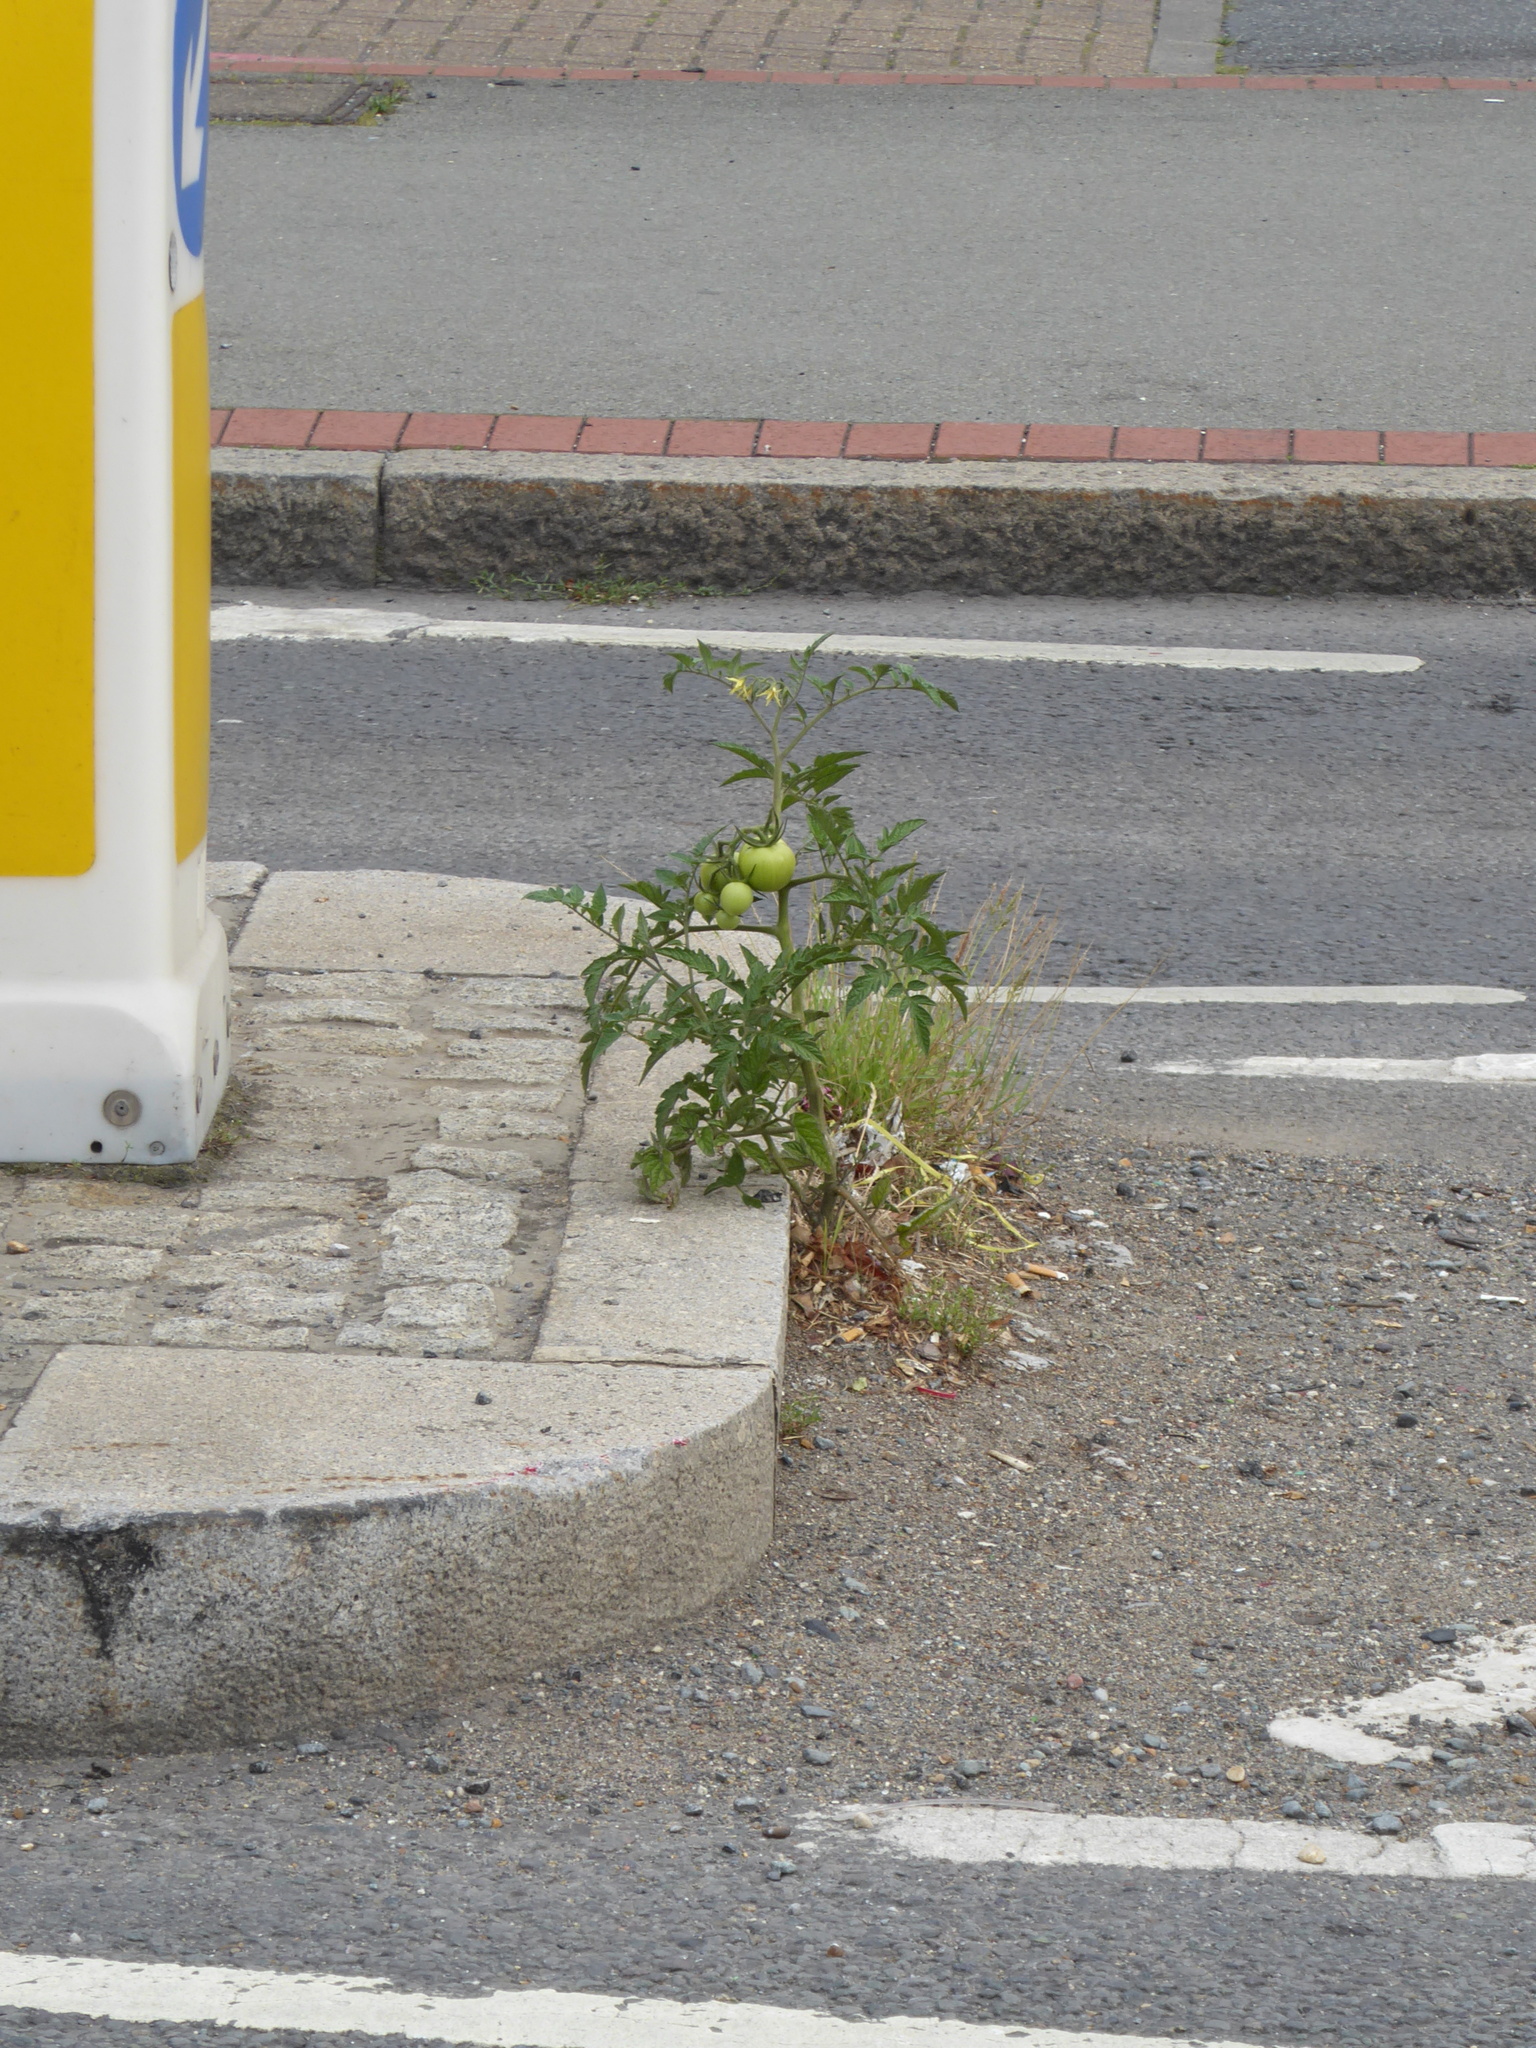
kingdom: Plantae
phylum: Tracheophyta
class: Magnoliopsida
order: Solanales
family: Solanaceae
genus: Solanum
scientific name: Solanum lycopersicum
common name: Garden tomato
